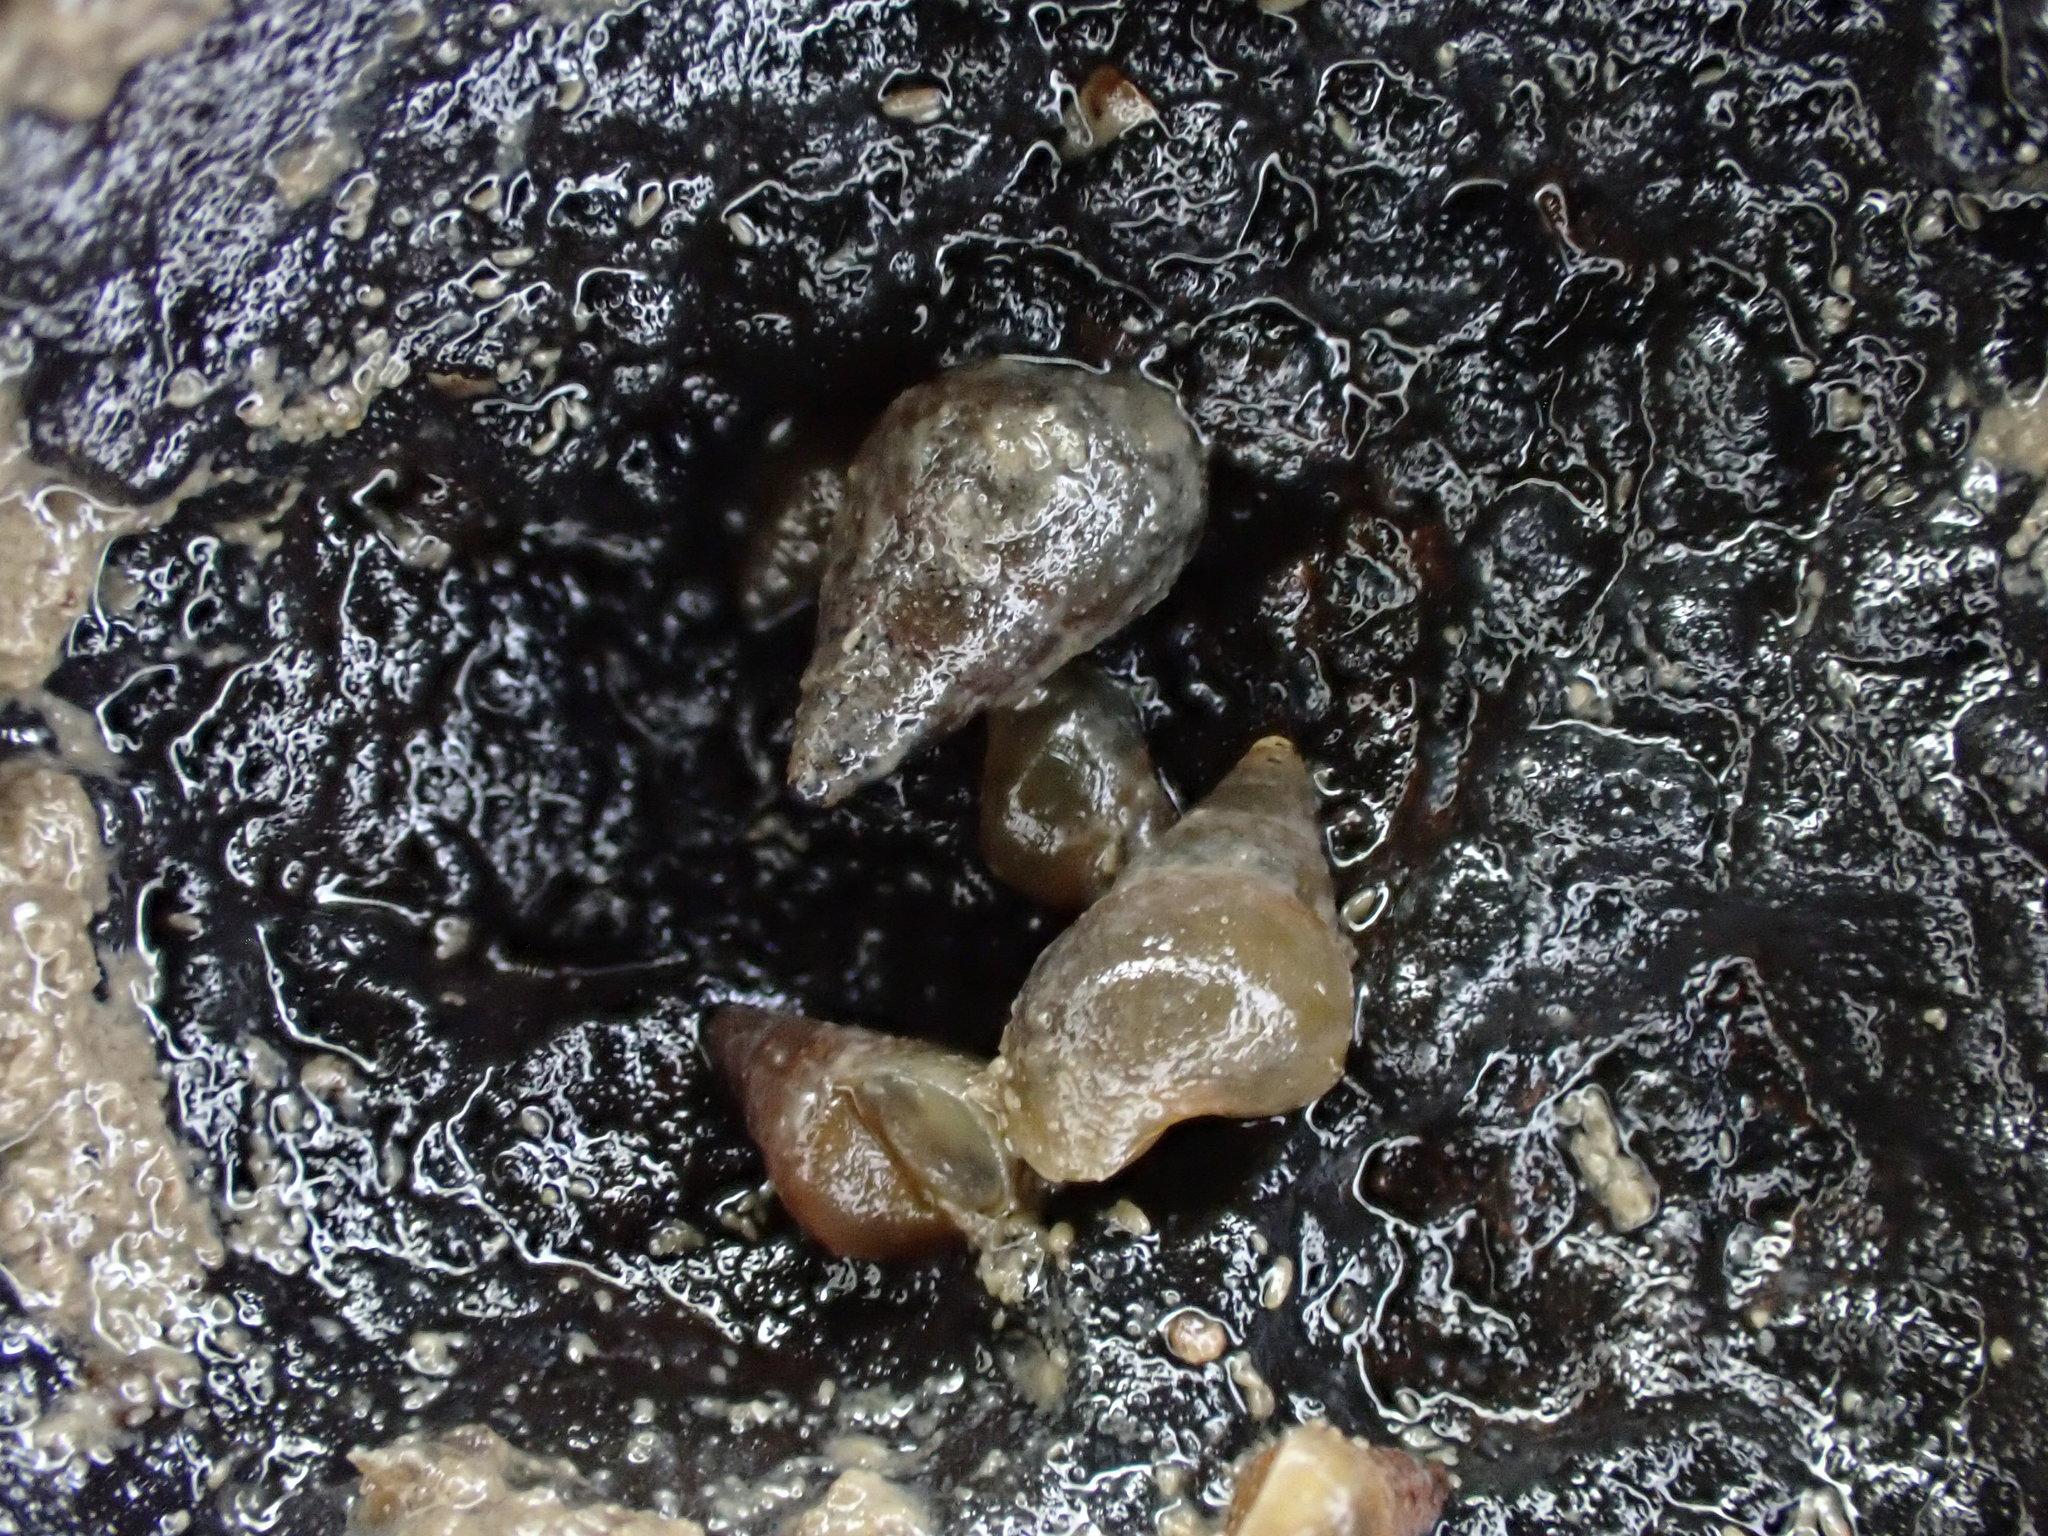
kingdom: Animalia
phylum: Mollusca
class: Gastropoda
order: Littorinimorpha
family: Tateidae
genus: Potamopyrgus
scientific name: Potamopyrgus estuarinus
